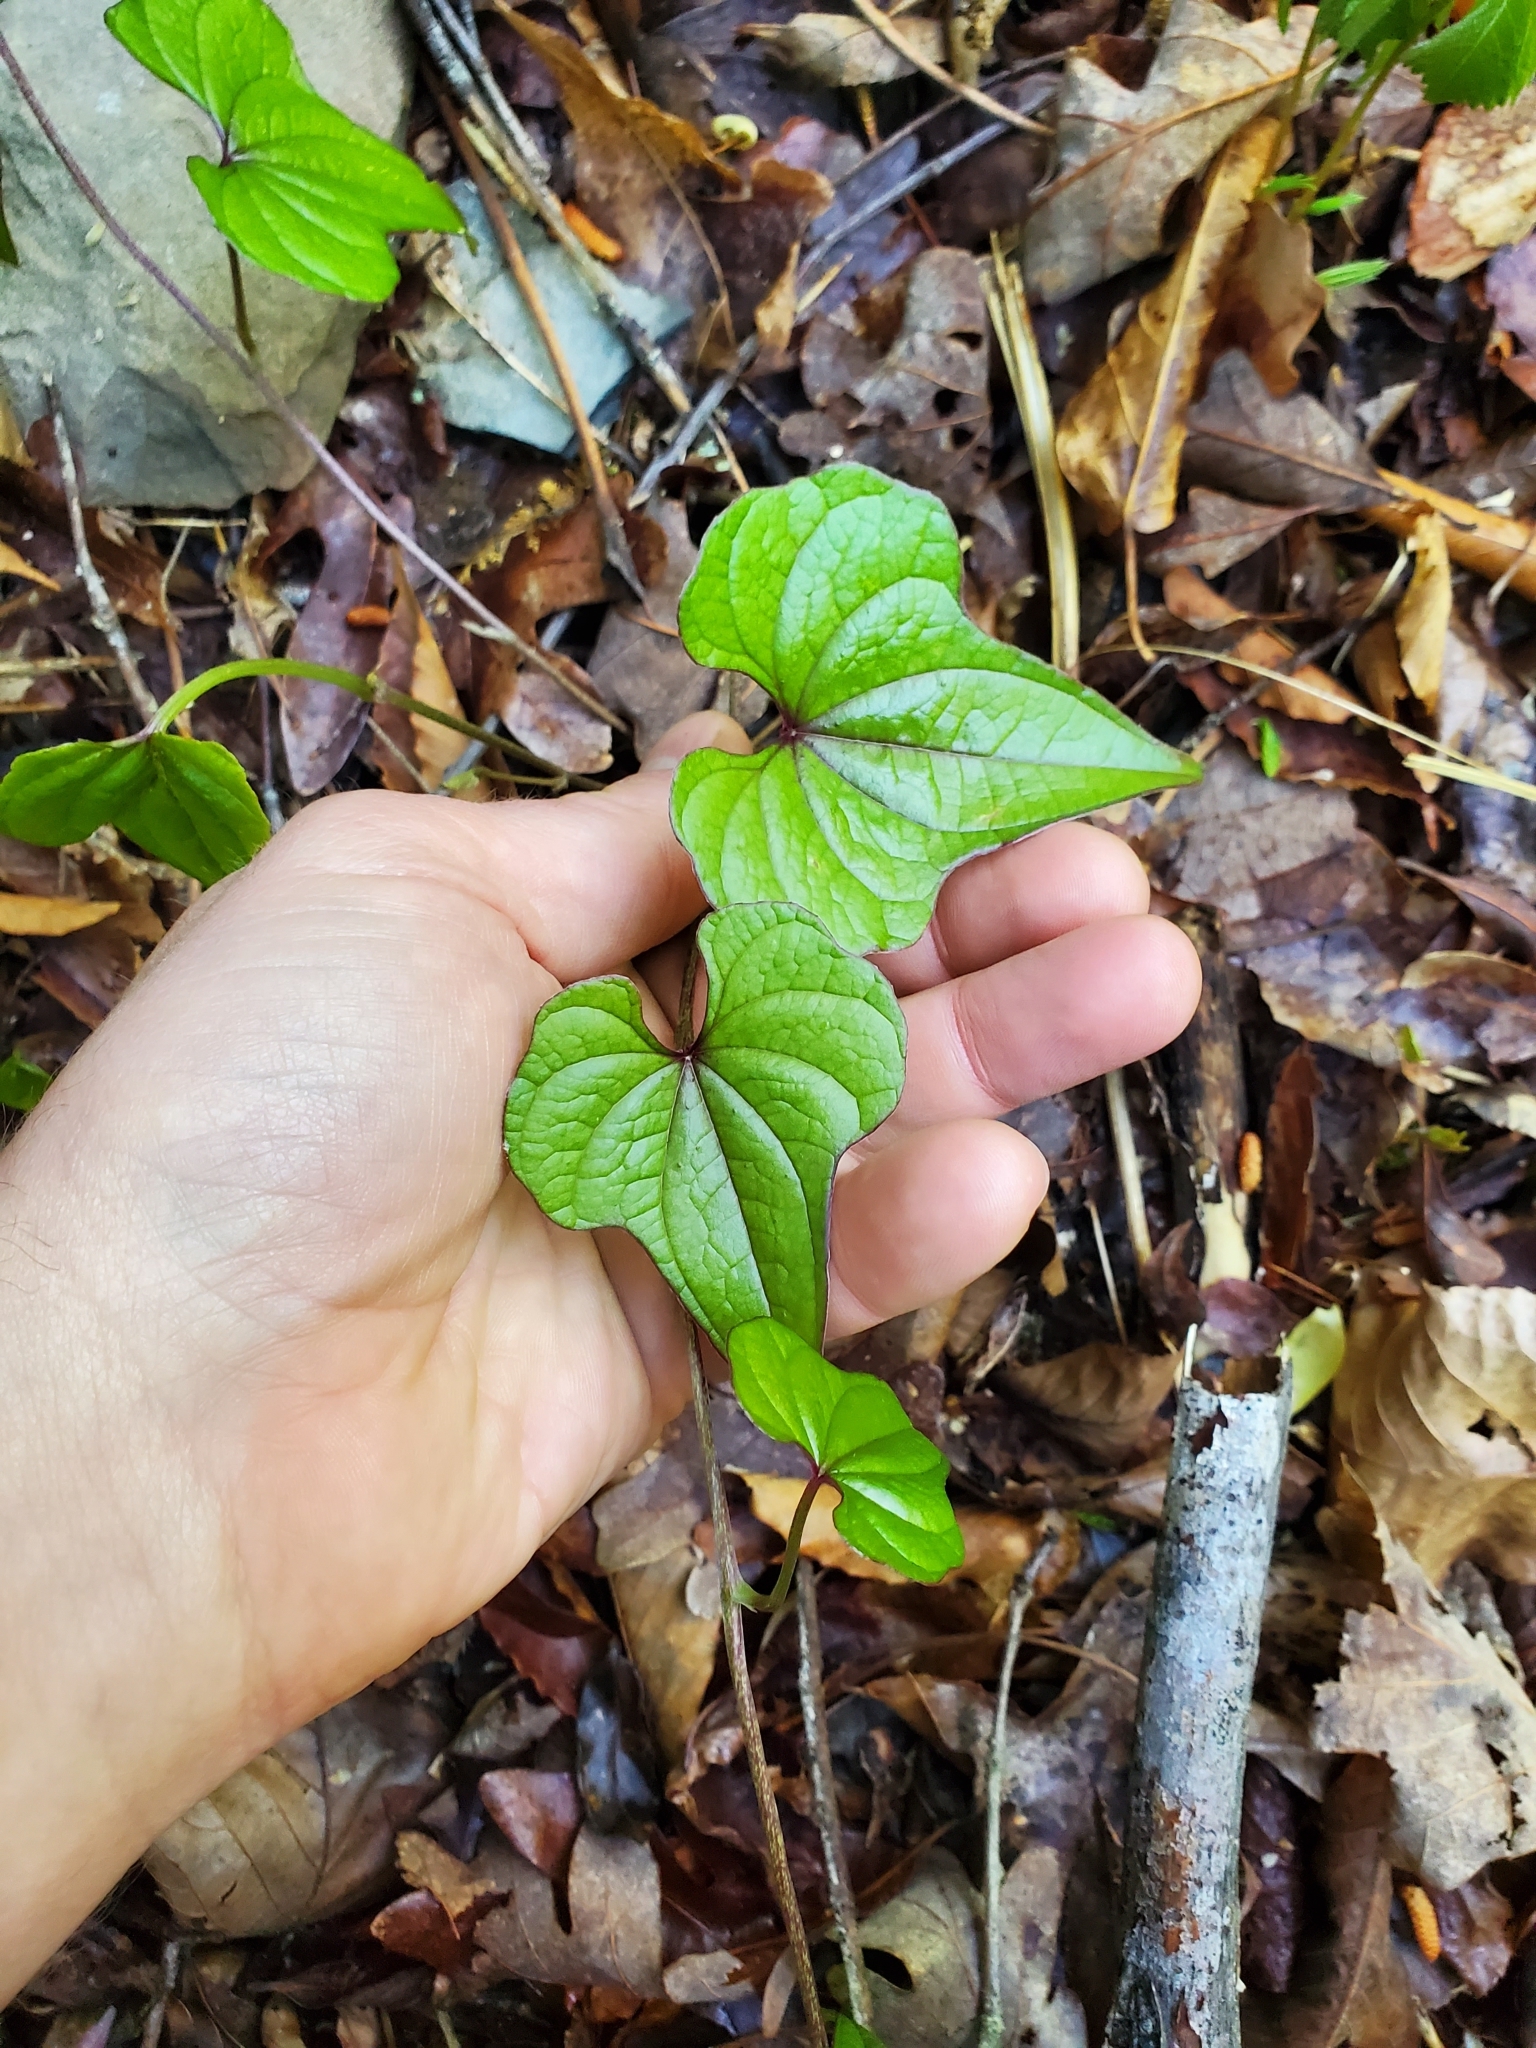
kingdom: Plantae
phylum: Tracheophyta
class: Liliopsida
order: Dioscoreales
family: Dioscoreaceae
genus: Dioscorea
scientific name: Dioscorea polystachya
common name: Chinese yam
